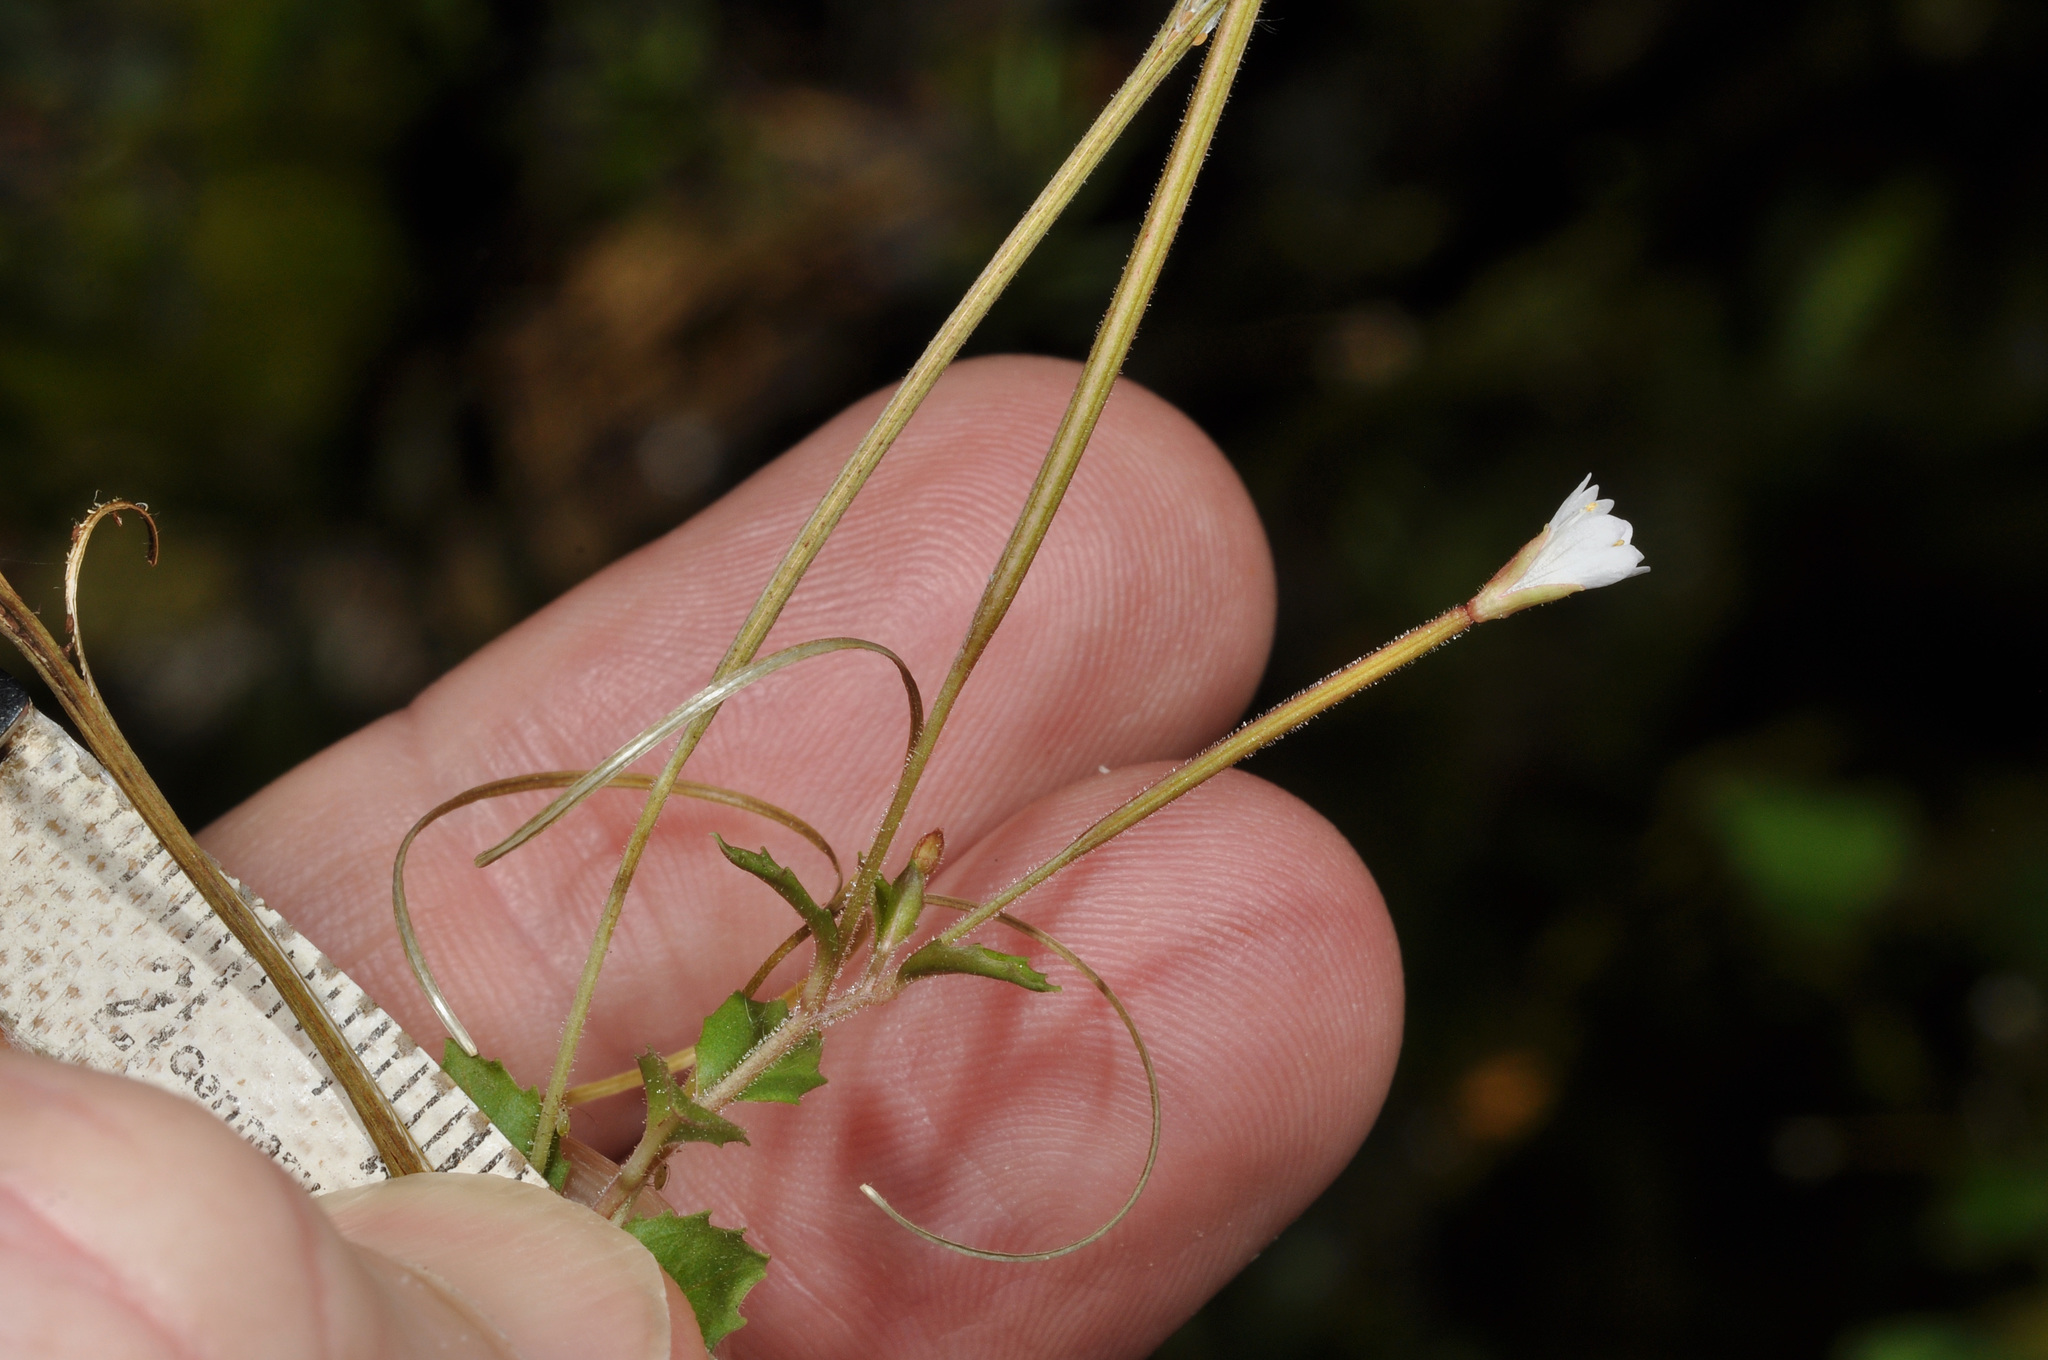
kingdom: Plantae
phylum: Tracheophyta
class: Magnoliopsida
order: Myrtales
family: Onagraceae
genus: Epilobium
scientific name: Epilobium rotundifolium
